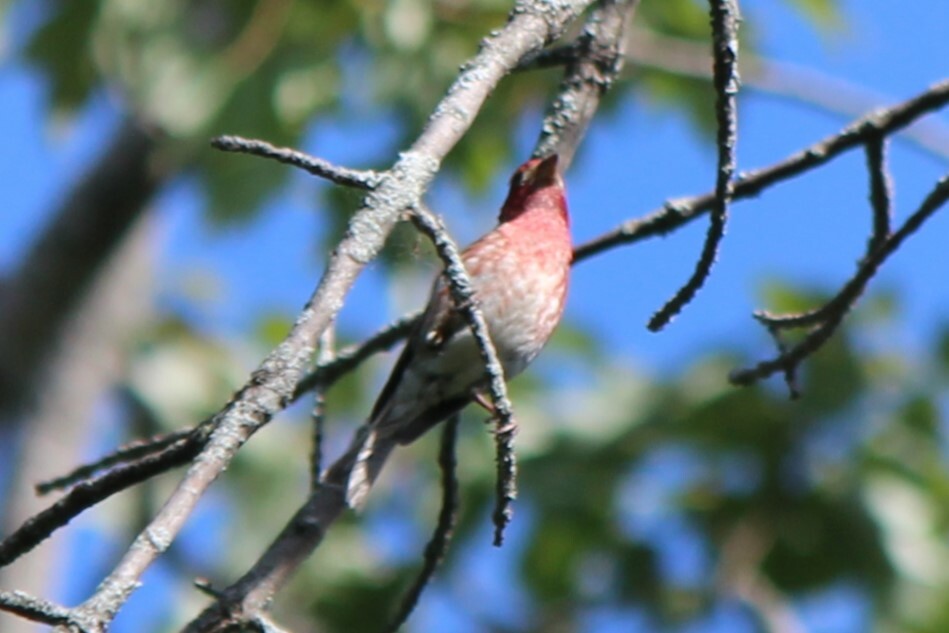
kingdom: Animalia
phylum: Chordata
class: Aves
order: Passeriformes
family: Fringillidae
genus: Haemorhous
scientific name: Haemorhous purpureus
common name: Purple finch
